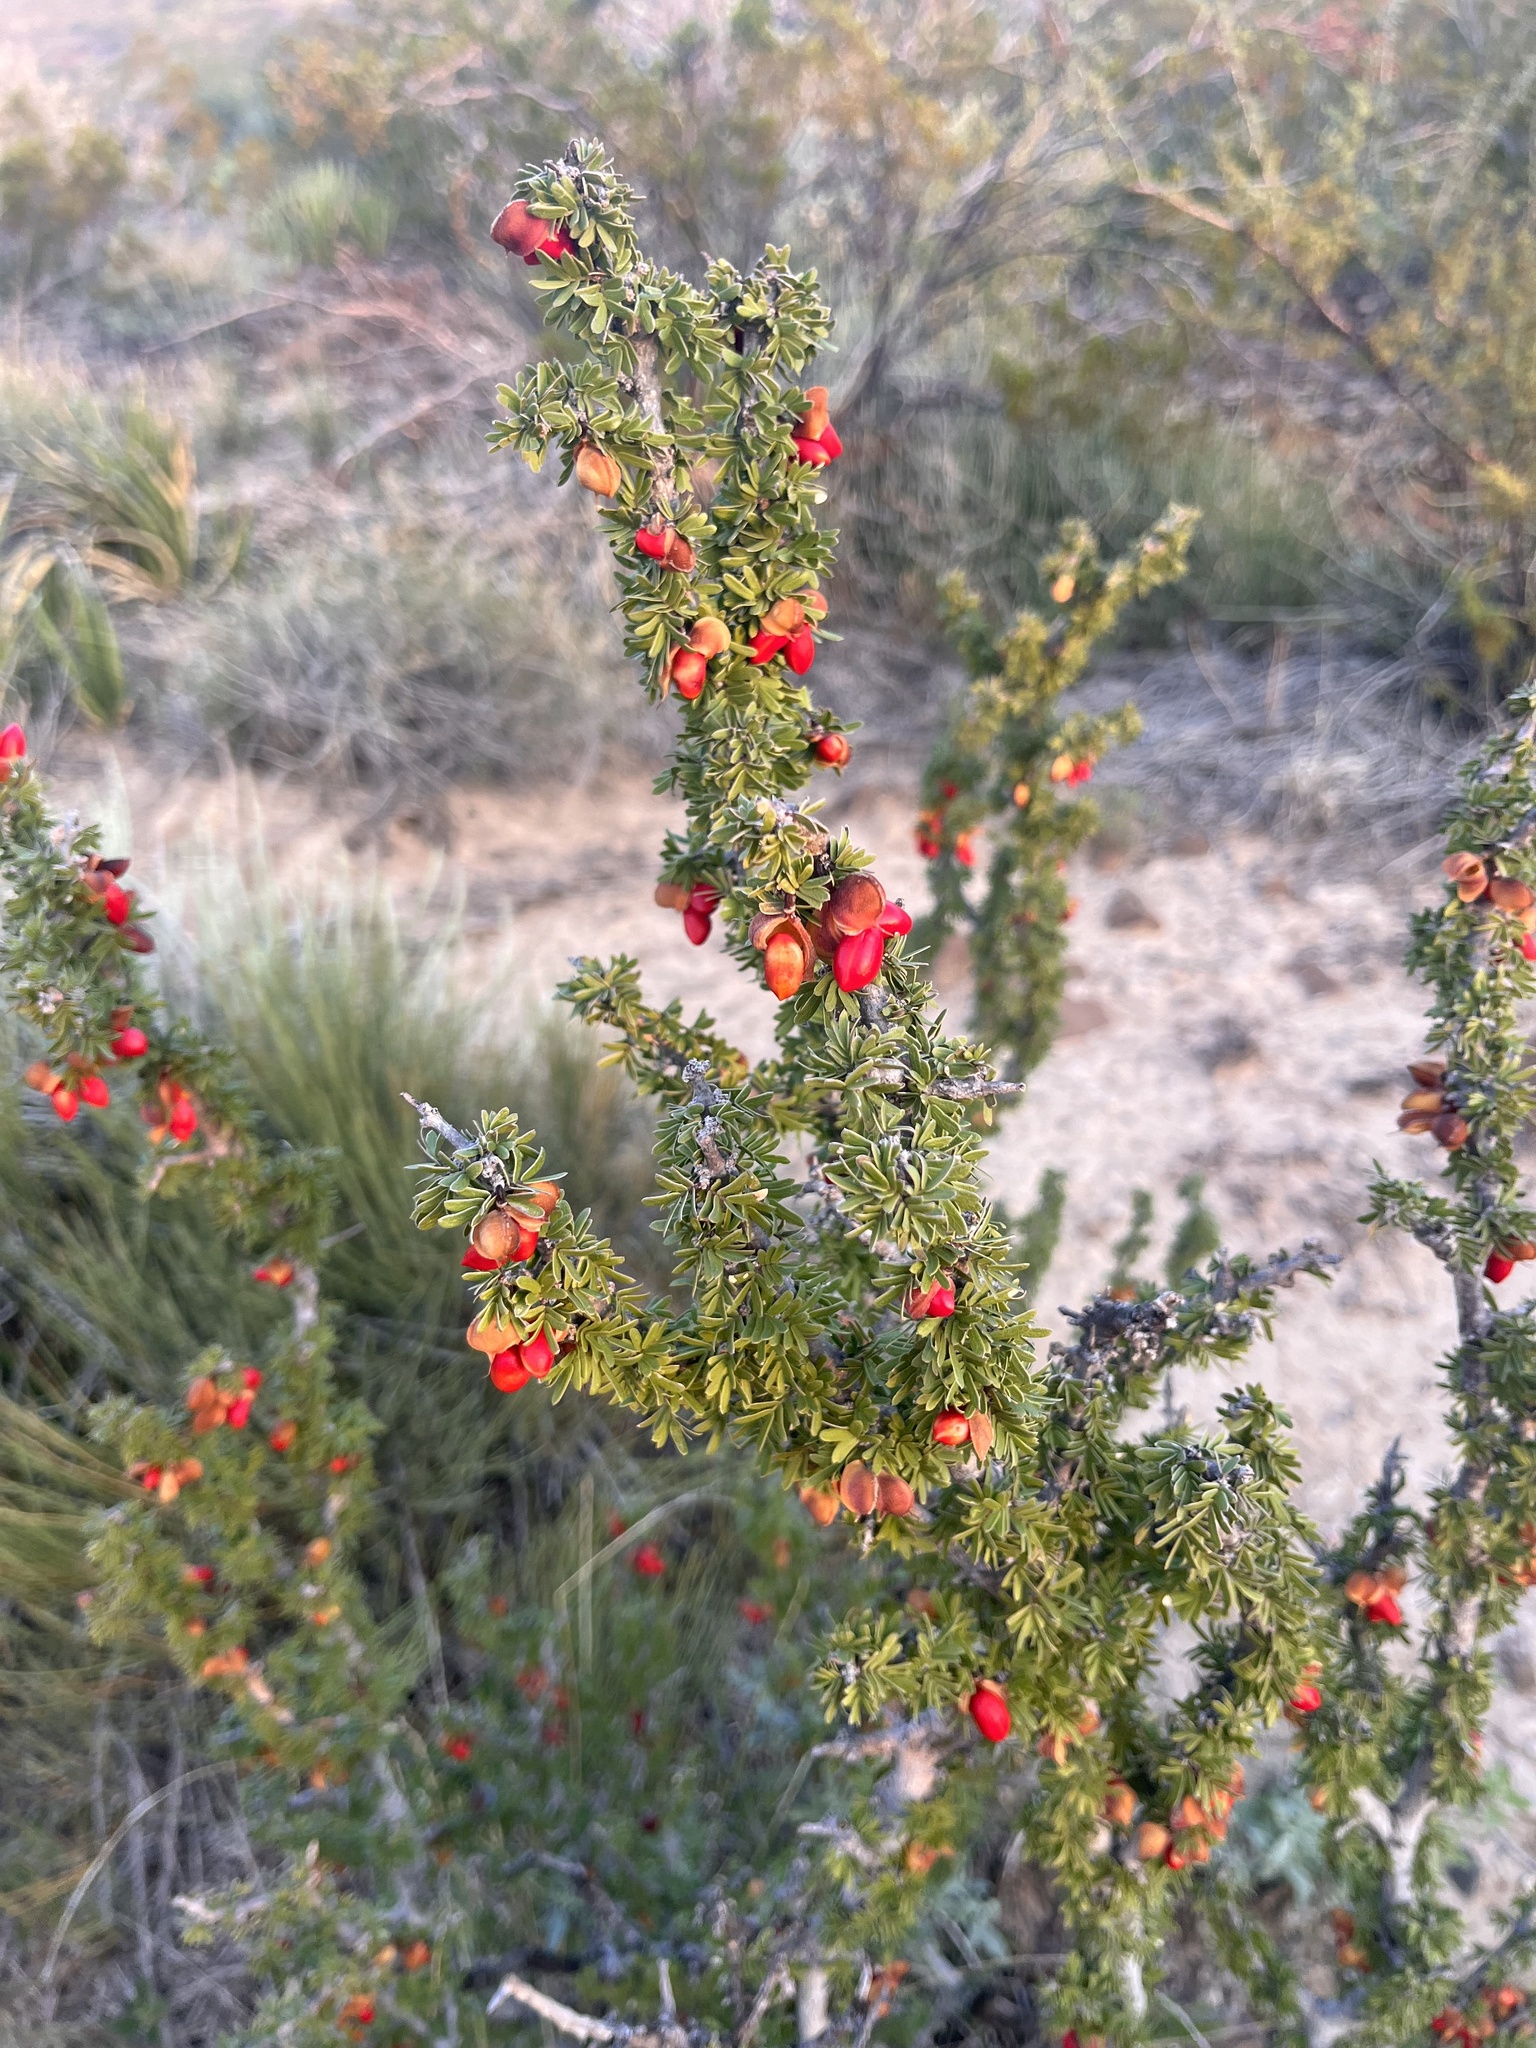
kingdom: Plantae
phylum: Tracheophyta
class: Magnoliopsida
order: Zygophyllales
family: Zygophyllaceae
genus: Porlieria
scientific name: Porlieria angustifolia
